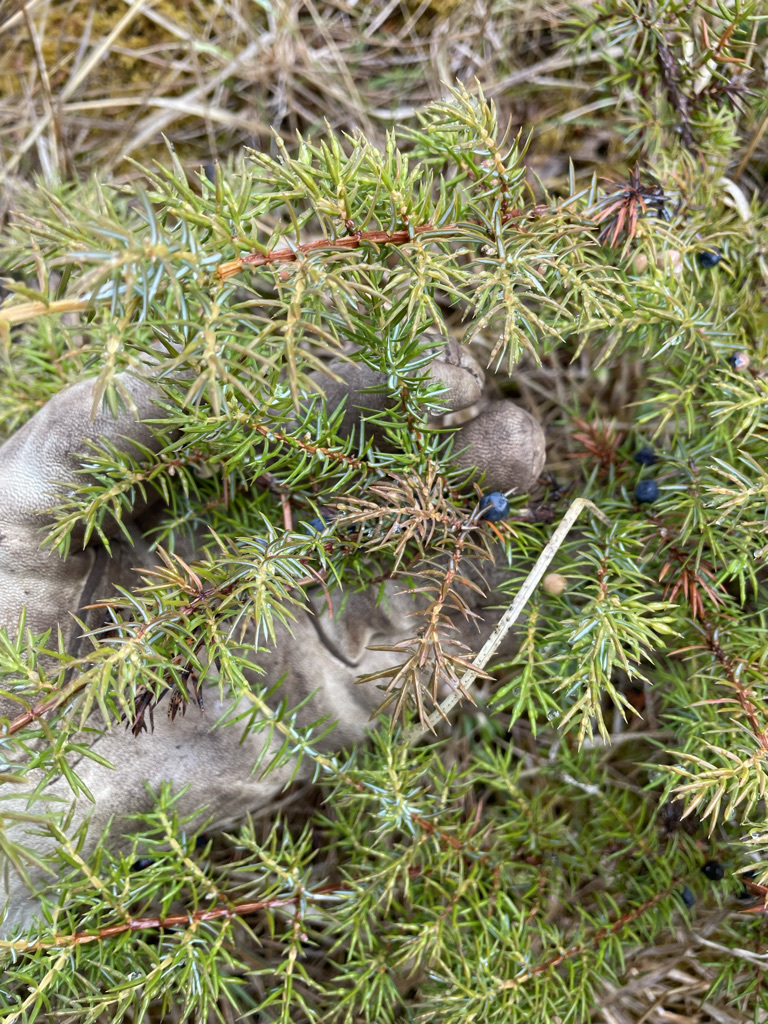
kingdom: Plantae
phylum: Tracheophyta
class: Pinopsida
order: Pinales
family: Cupressaceae
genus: Juniperus
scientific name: Juniperus communis
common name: Common juniper
